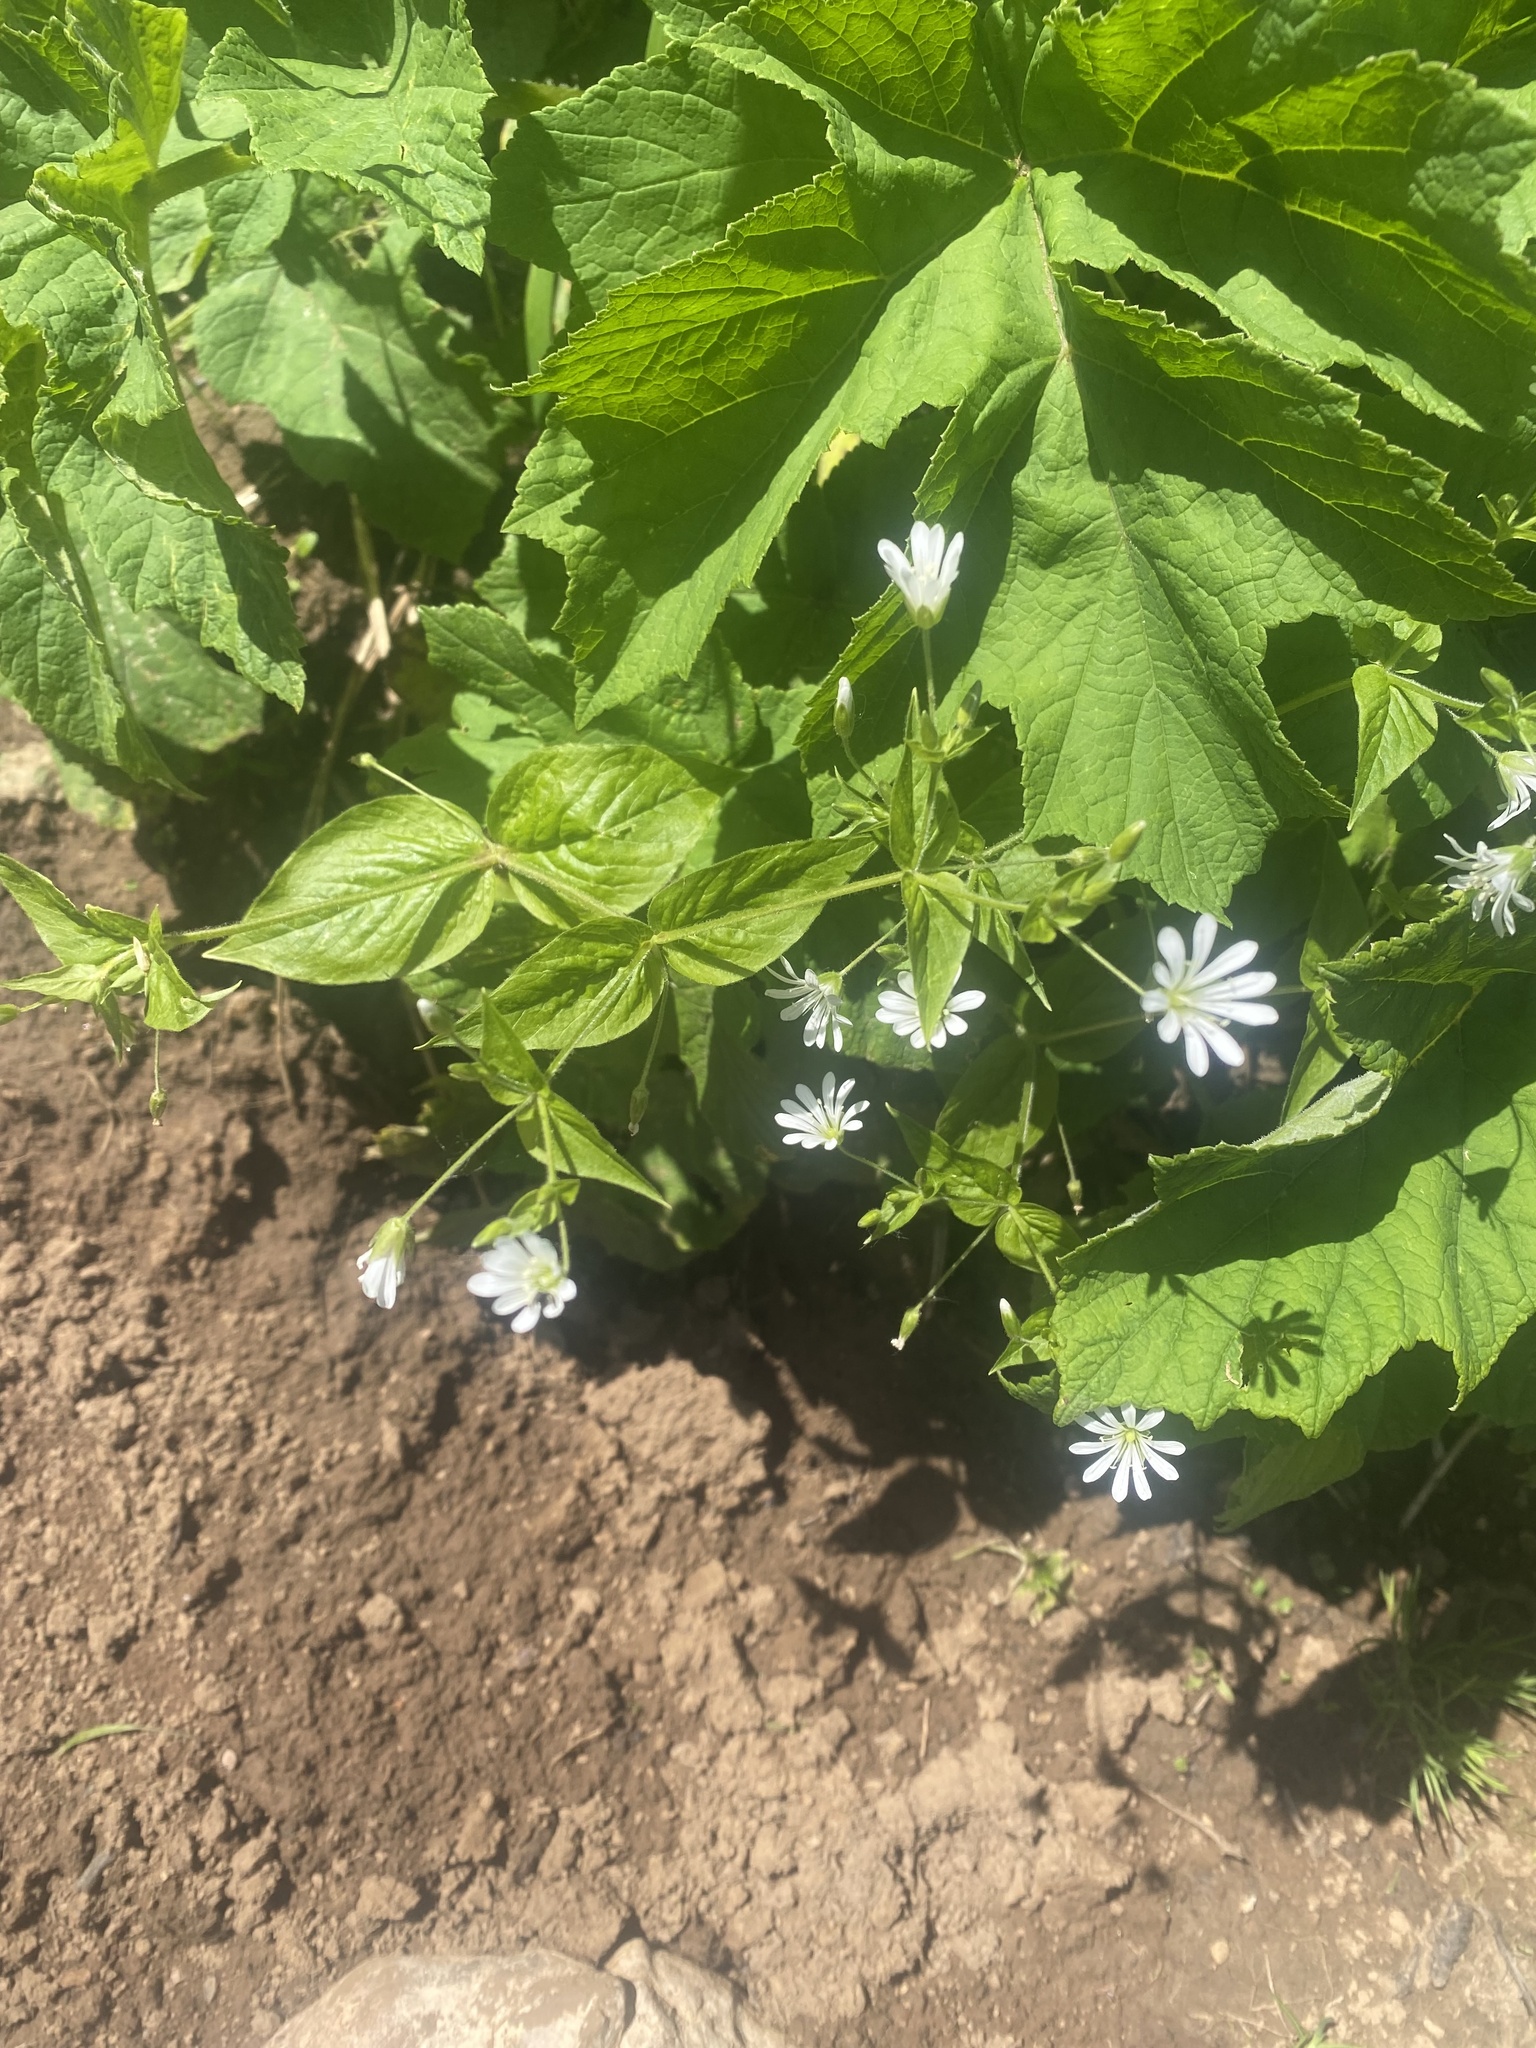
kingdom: Plantae
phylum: Tracheophyta
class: Magnoliopsida
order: Caryophyllales
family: Caryophyllaceae
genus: Stellaria
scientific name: Stellaria nemorum
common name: Wood stitchwort
